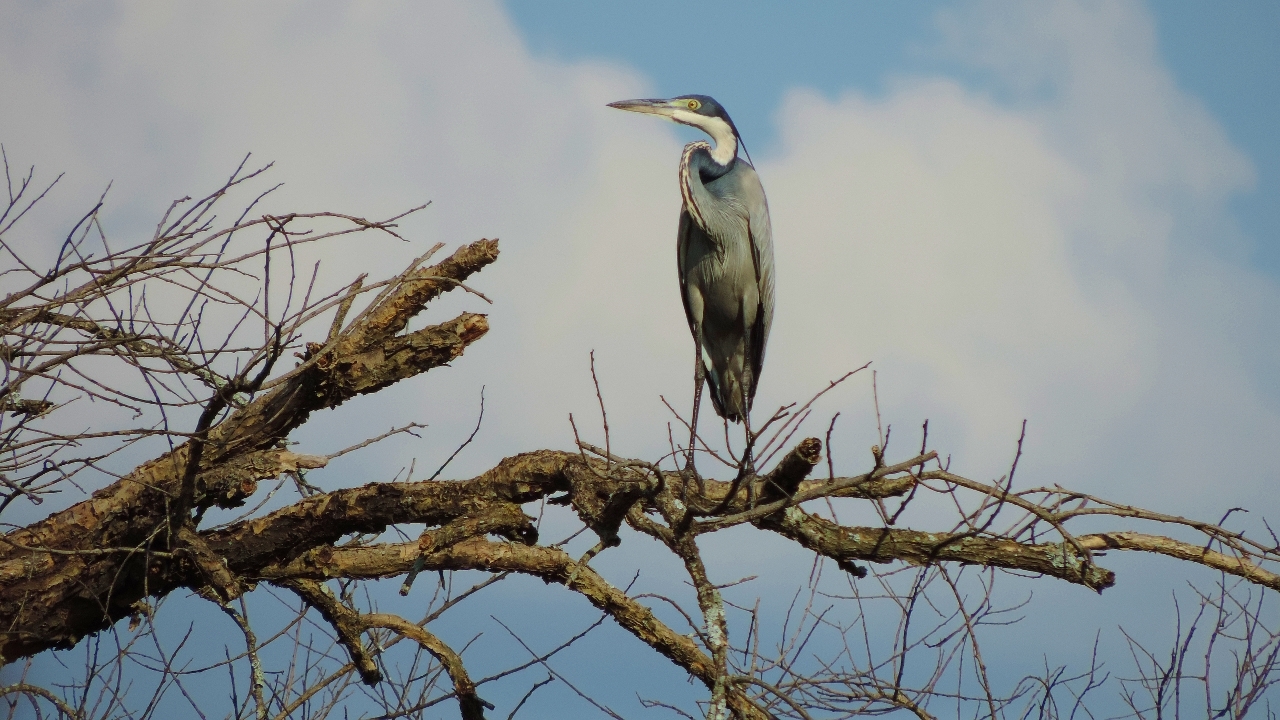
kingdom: Animalia
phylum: Chordata
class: Aves
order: Pelecaniformes
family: Ardeidae
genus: Ardea
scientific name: Ardea melanocephala
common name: Black-headed heron
